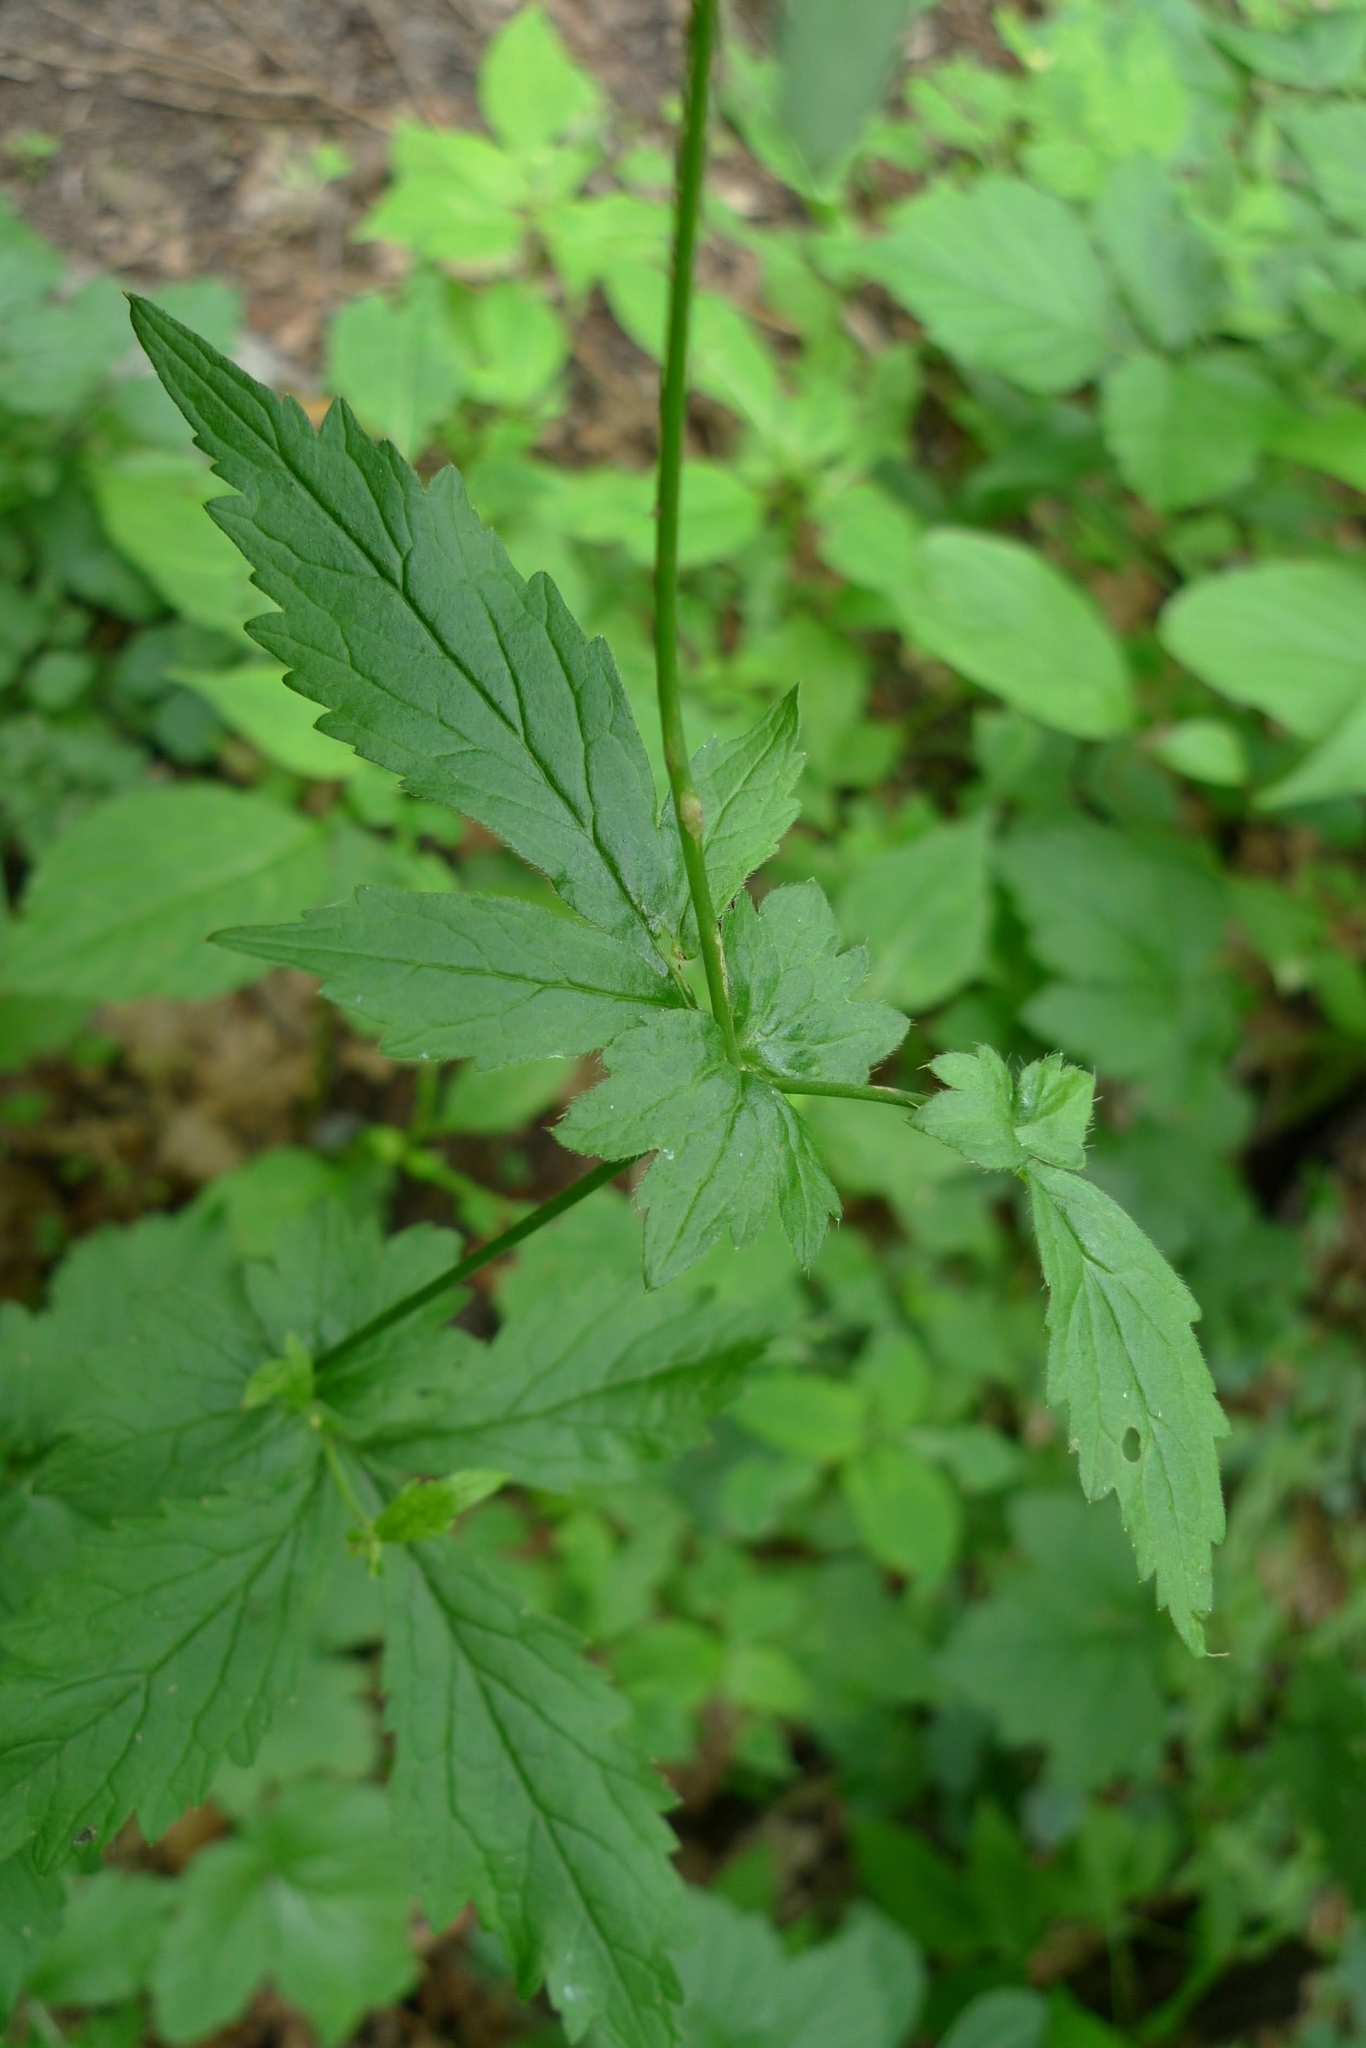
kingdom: Plantae
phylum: Tracheophyta
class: Magnoliopsida
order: Rosales
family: Rosaceae
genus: Geum
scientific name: Geum urbanum
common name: Wood avens
